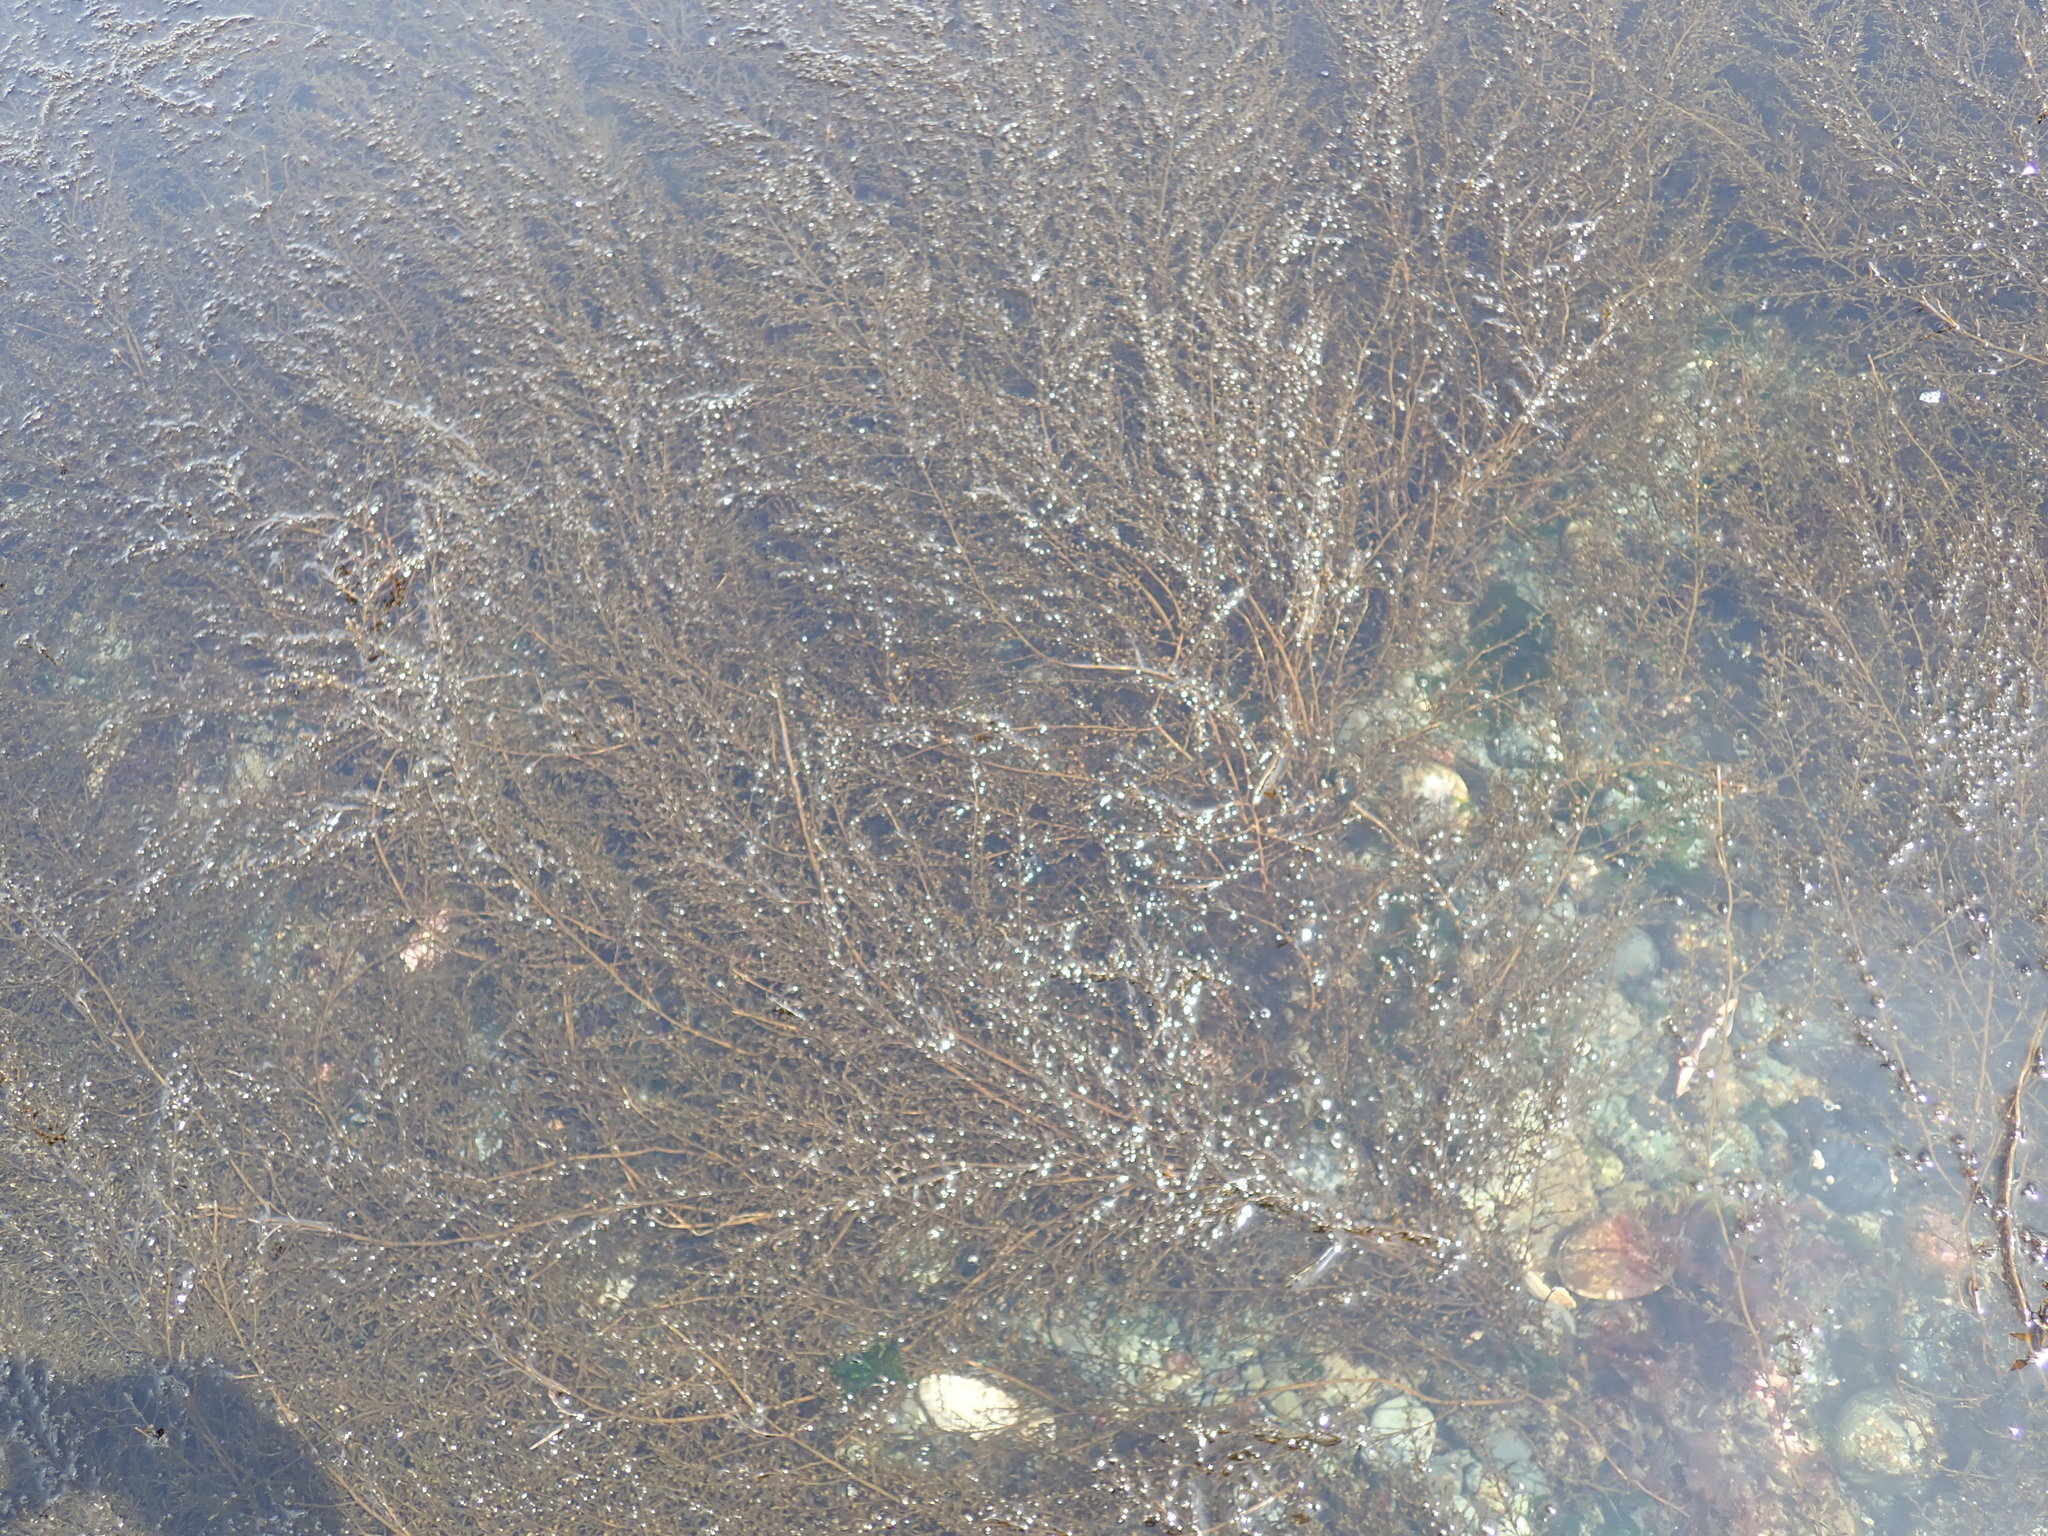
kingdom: Chromista
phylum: Ochrophyta
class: Phaeophyceae
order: Fucales
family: Sargassaceae
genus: Sargassum
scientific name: Sargassum muticum
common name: Japweed
